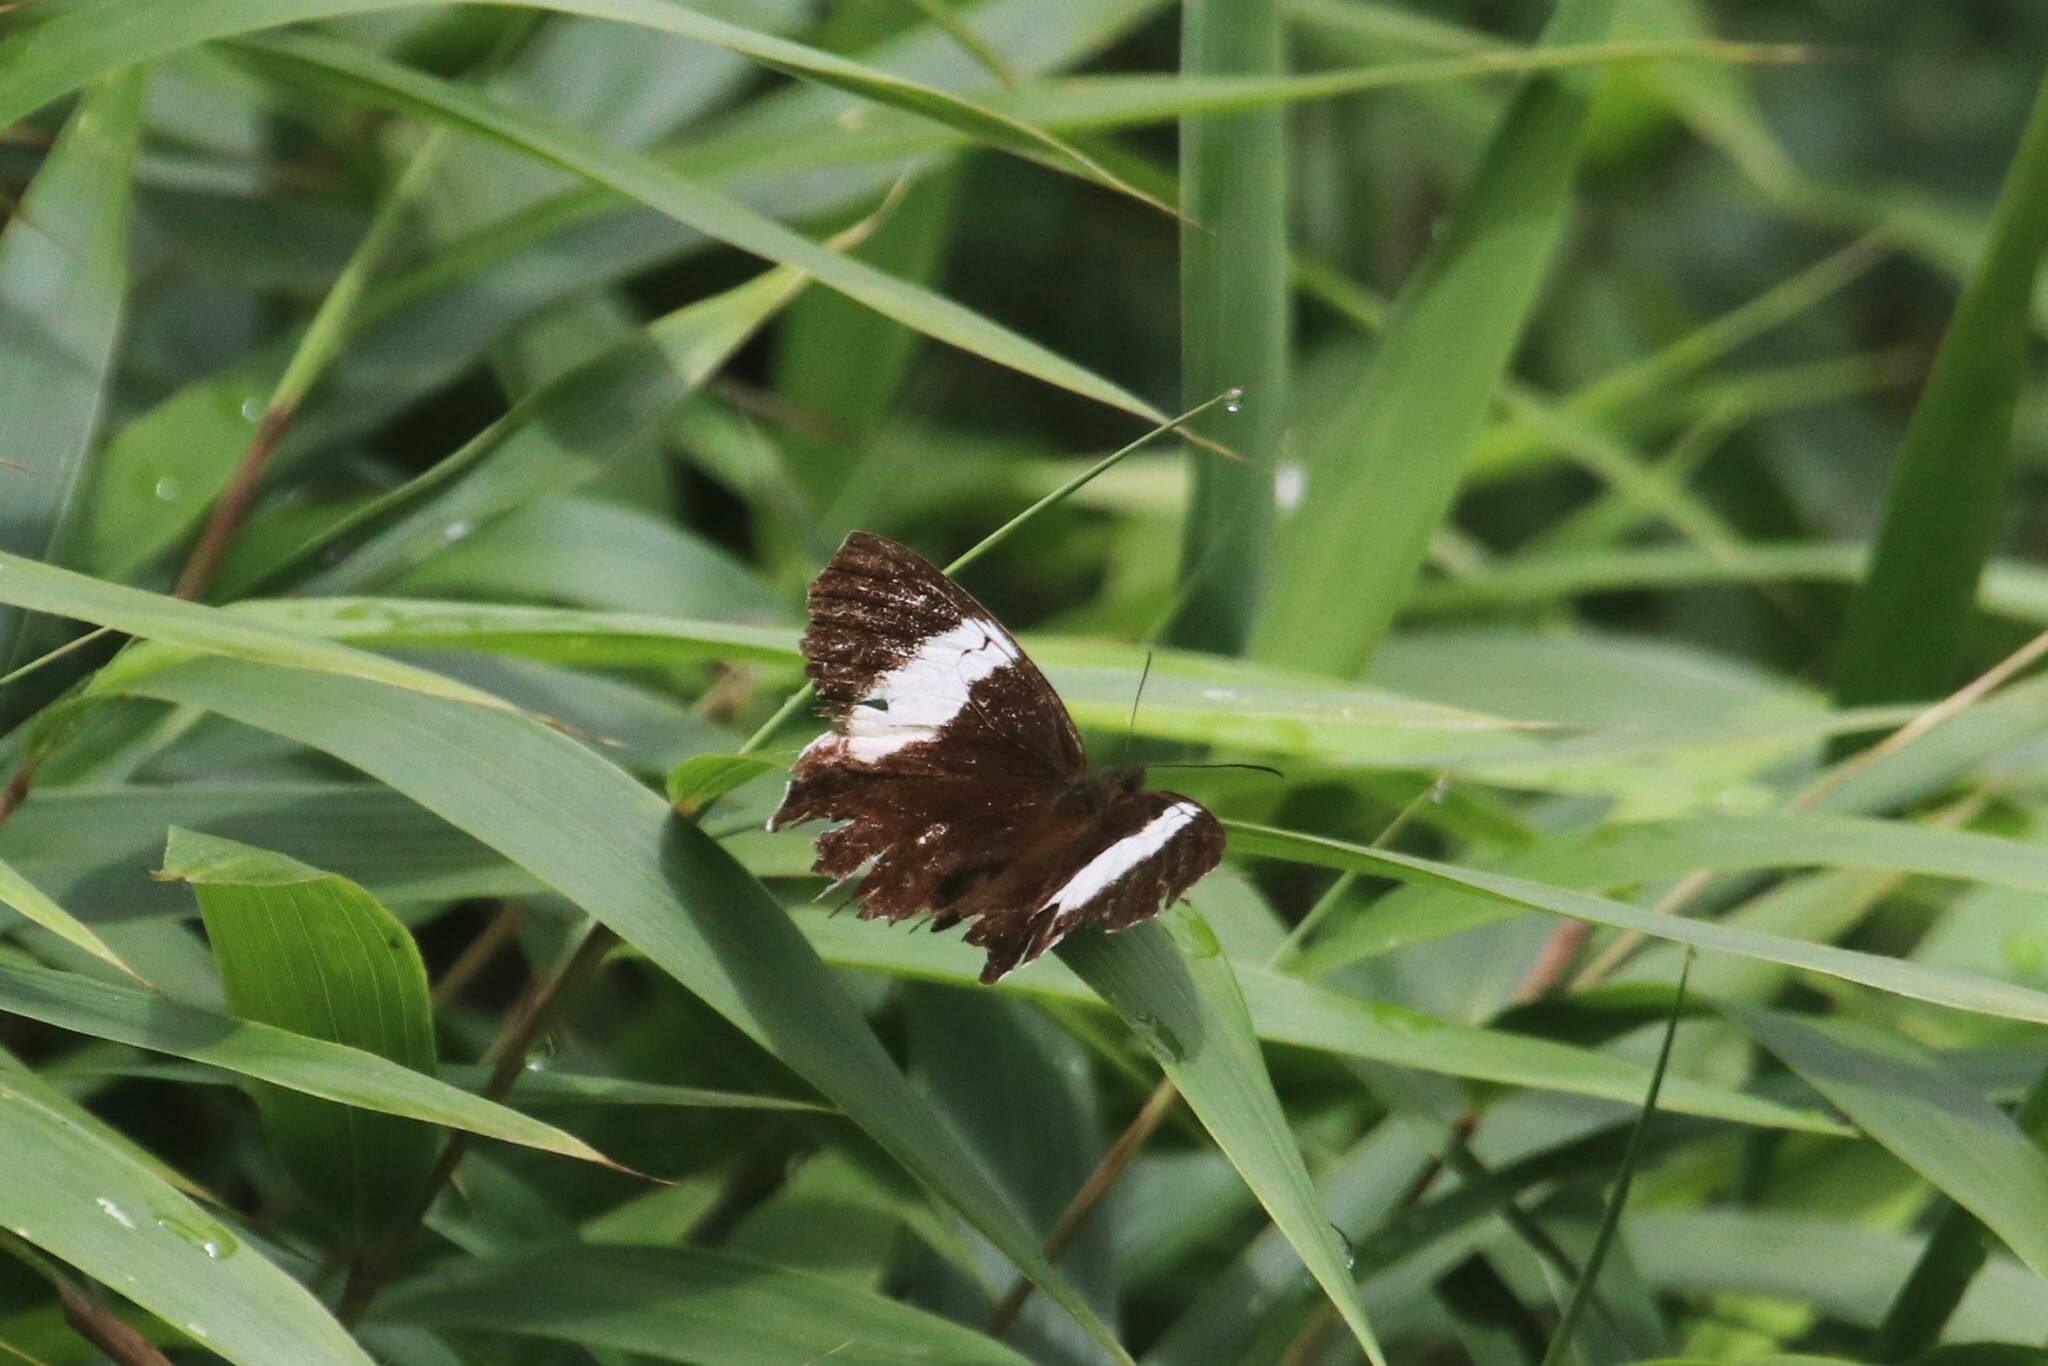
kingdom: Animalia
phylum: Arthropoda
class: Insecta
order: Lepidoptera
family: Nymphalidae
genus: Pedaliodes
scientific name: Pedaliodes peucestas
